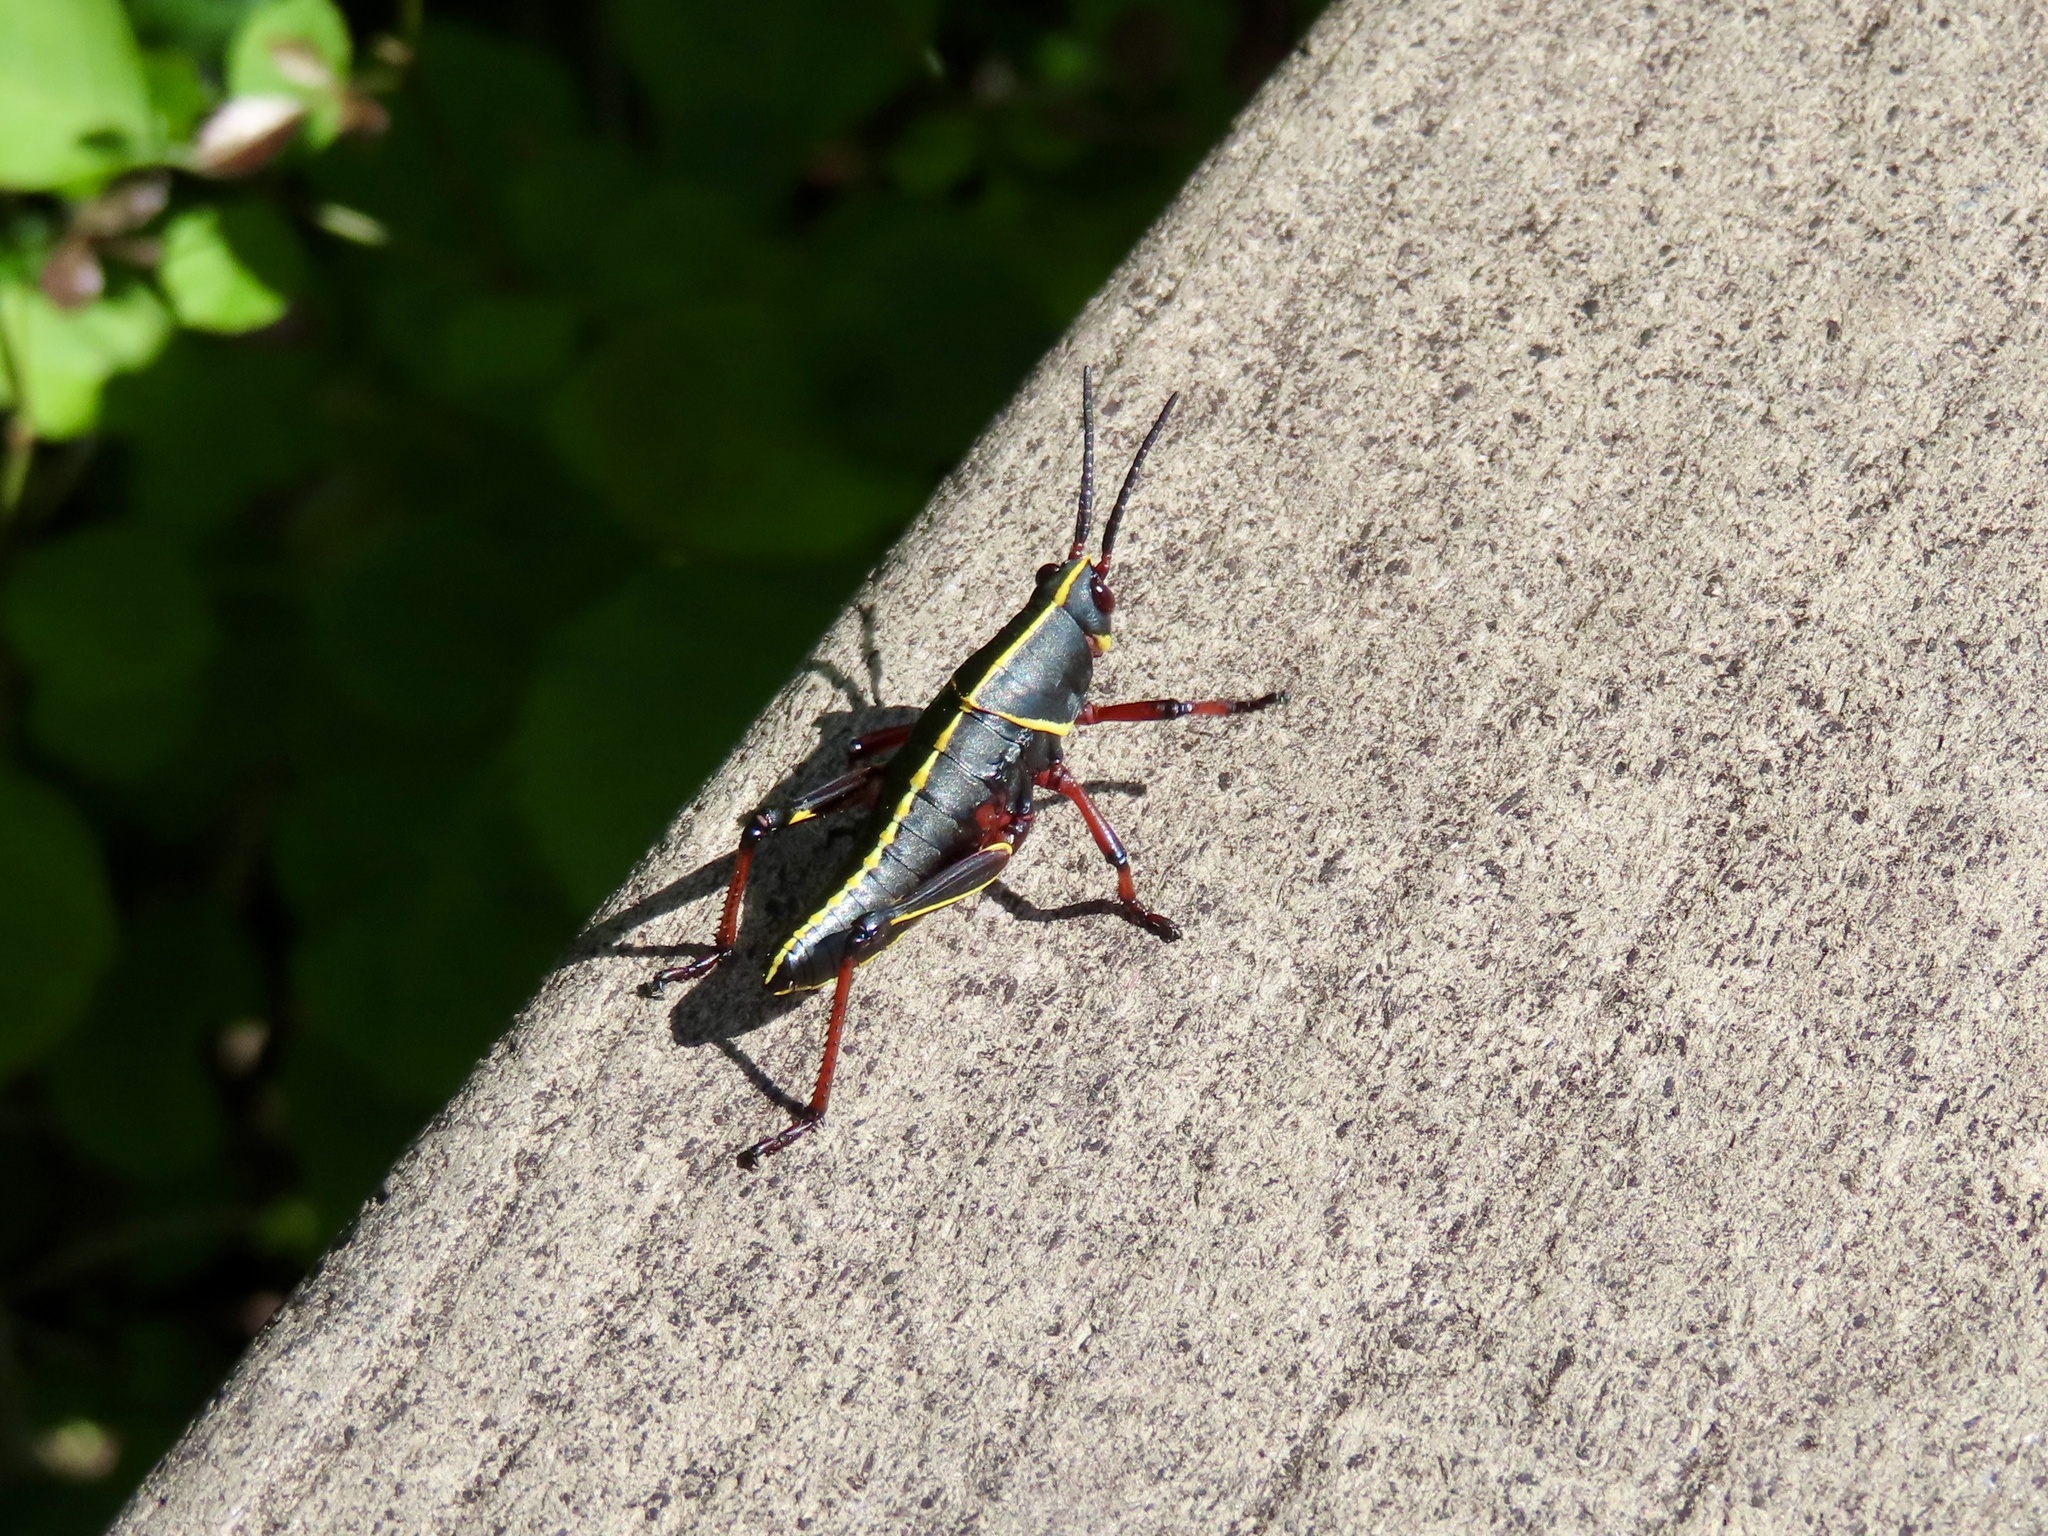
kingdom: Animalia
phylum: Arthropoda
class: Insecta
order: Orthoptera
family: Romaleidae
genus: Romalea
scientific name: Romalea microptera
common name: Eastern lubber grasshopper
